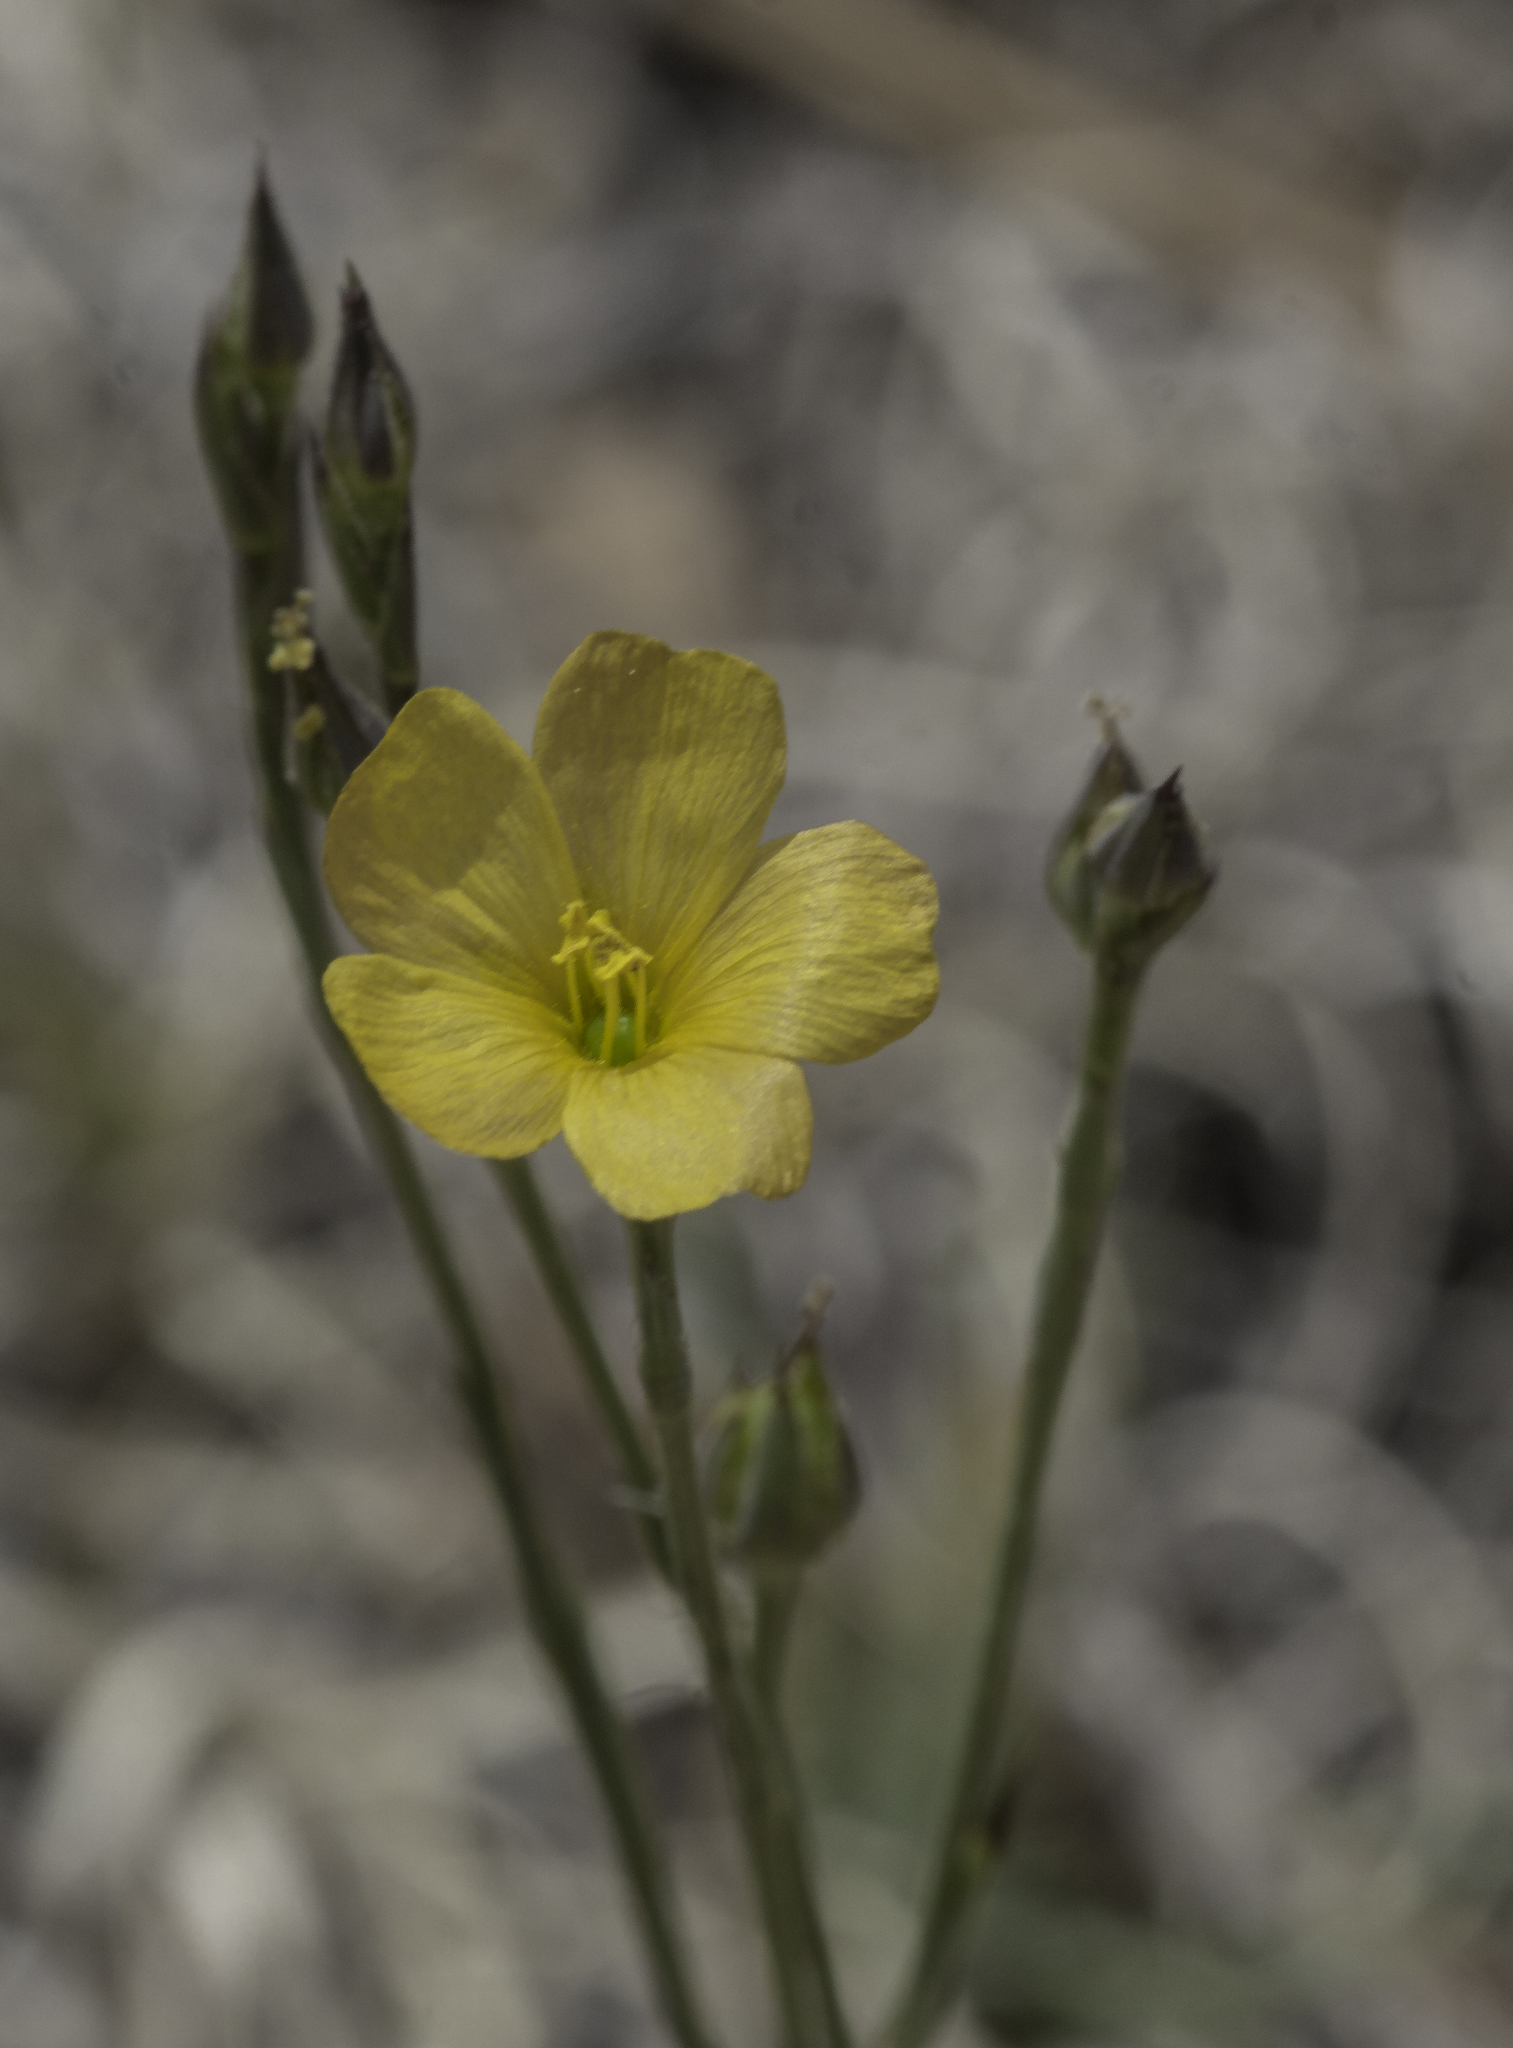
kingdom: Plantae
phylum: Tracheophyta
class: Magnoliopsida
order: Malpighiales
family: Linaceae
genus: Linum
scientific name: Linum australe
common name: Small yellow flax
